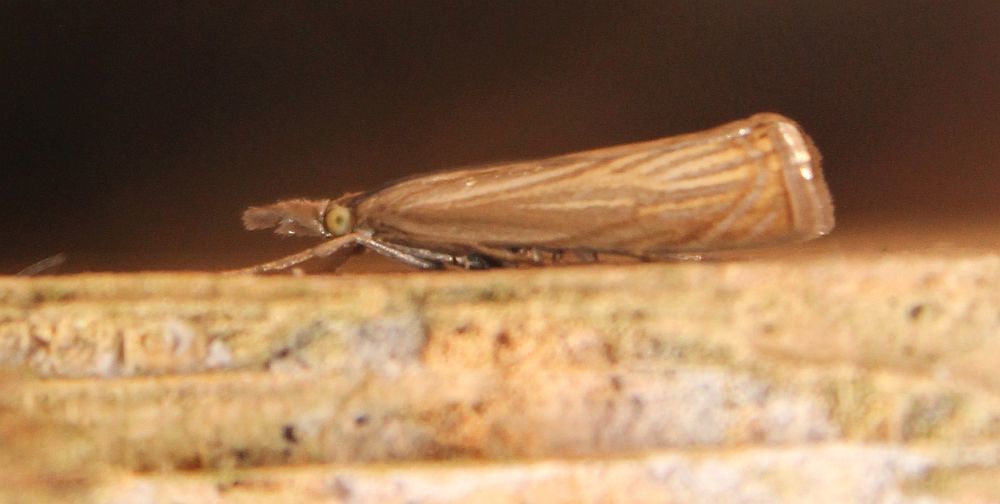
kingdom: Animalia
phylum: Arthropoda
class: Insecta
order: Lepidoptera
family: Crambidae
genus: Chrysoteuchia
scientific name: Chrysoteuchia culmella
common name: Garden grass-veneer
